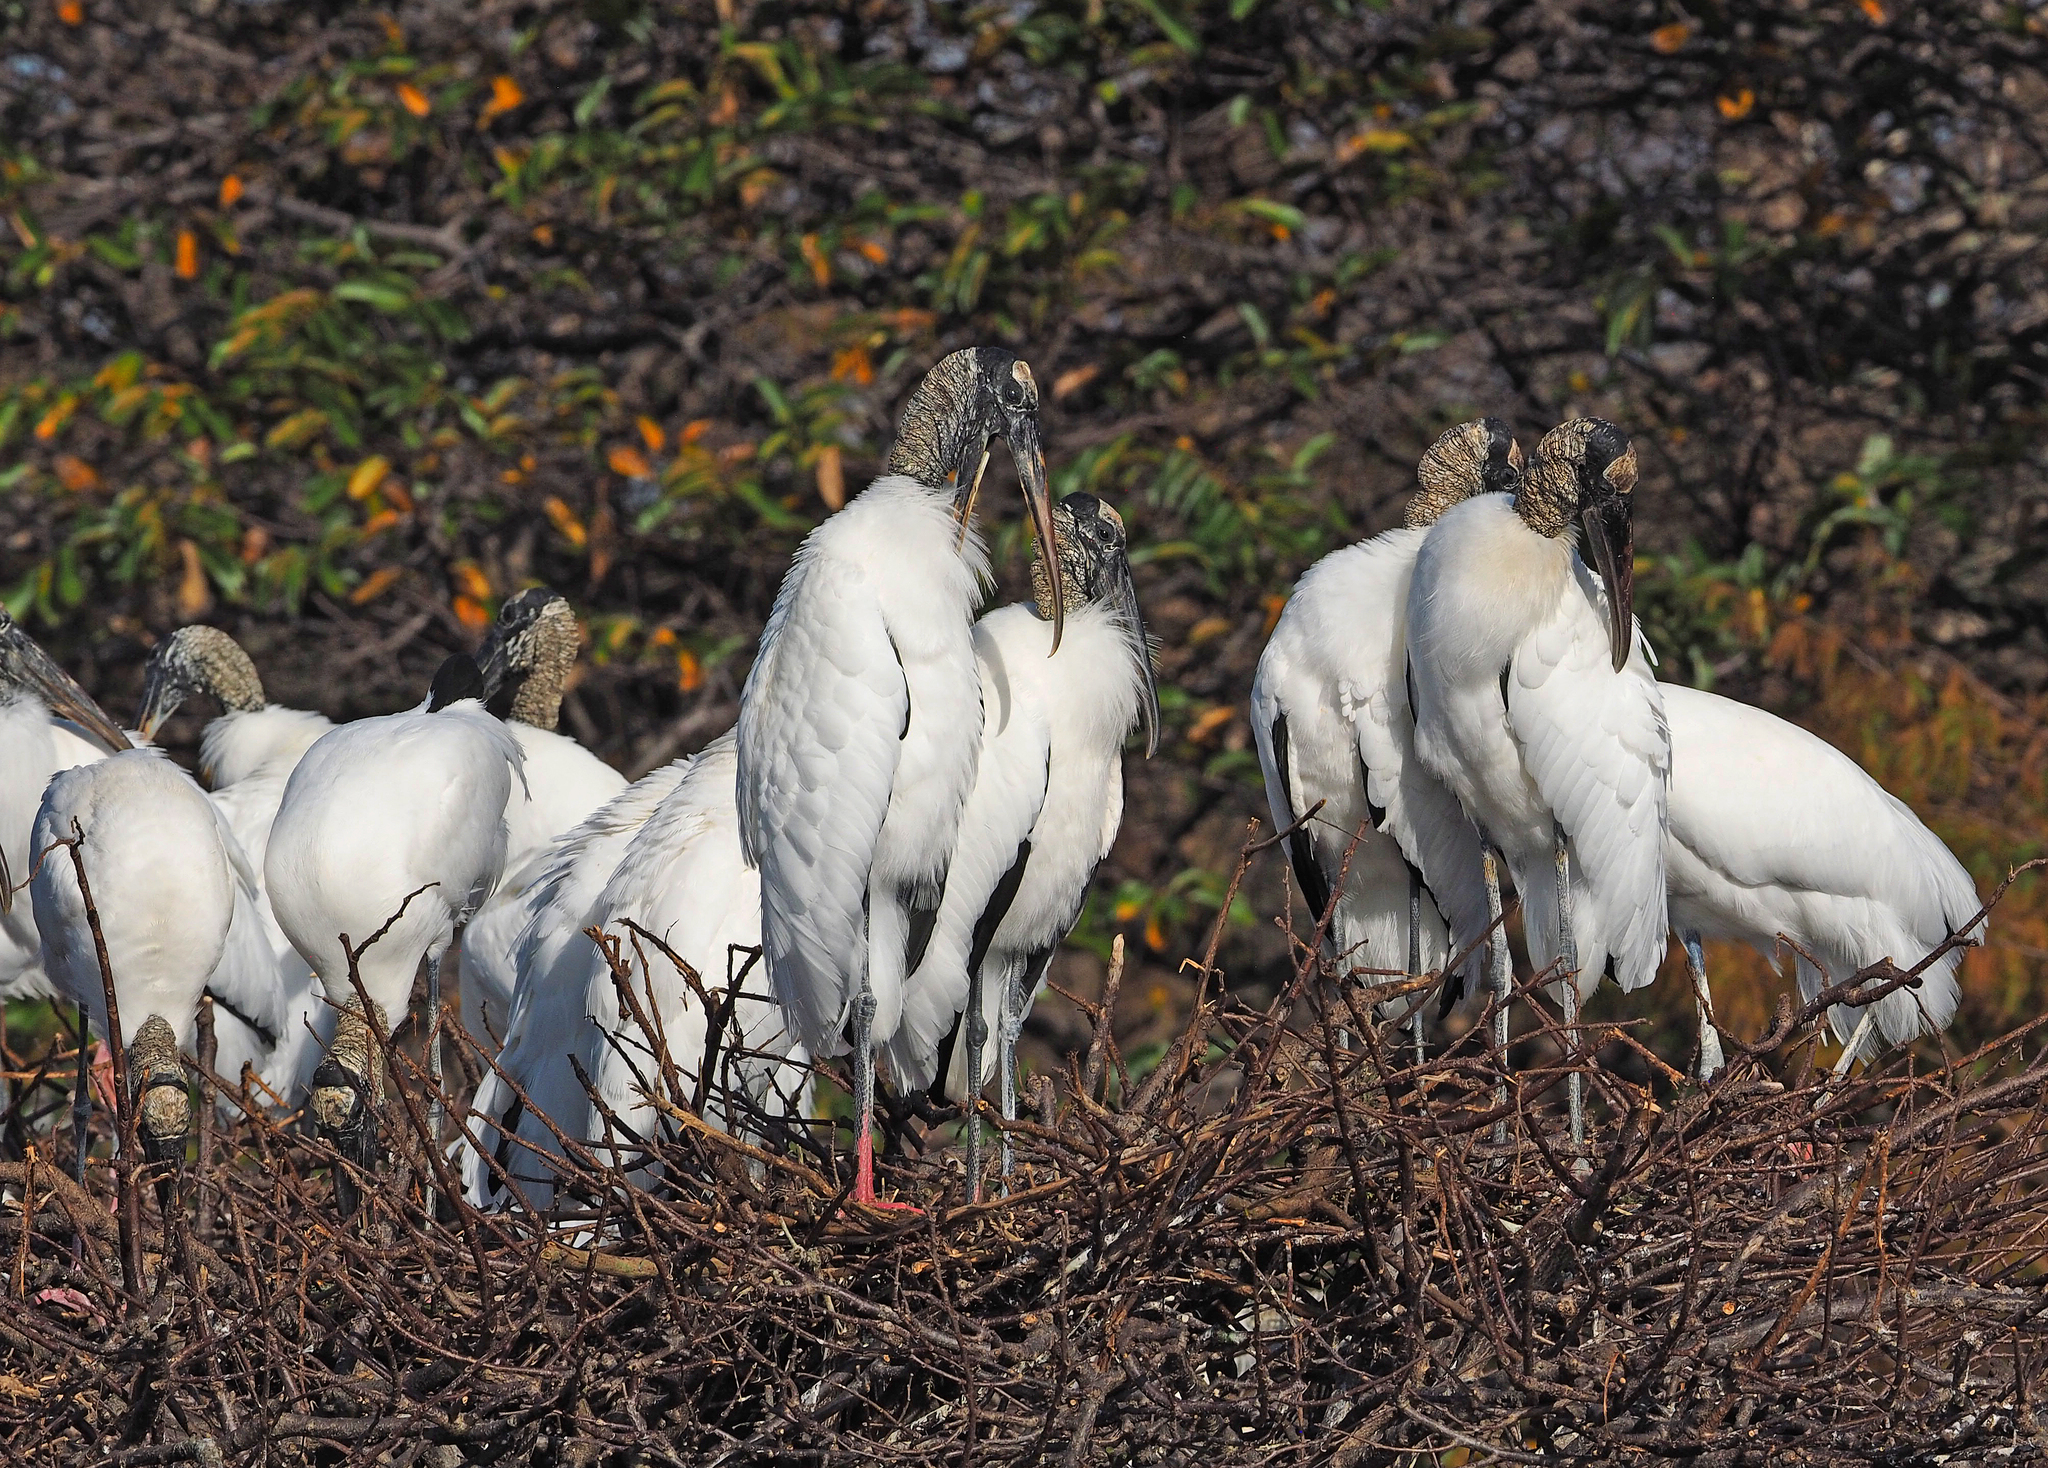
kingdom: Animalia
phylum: Chordata
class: Aves
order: Ciconiiformes
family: Ciconiidae
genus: Mycteria
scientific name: Mycteria americana
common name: Wood stork
